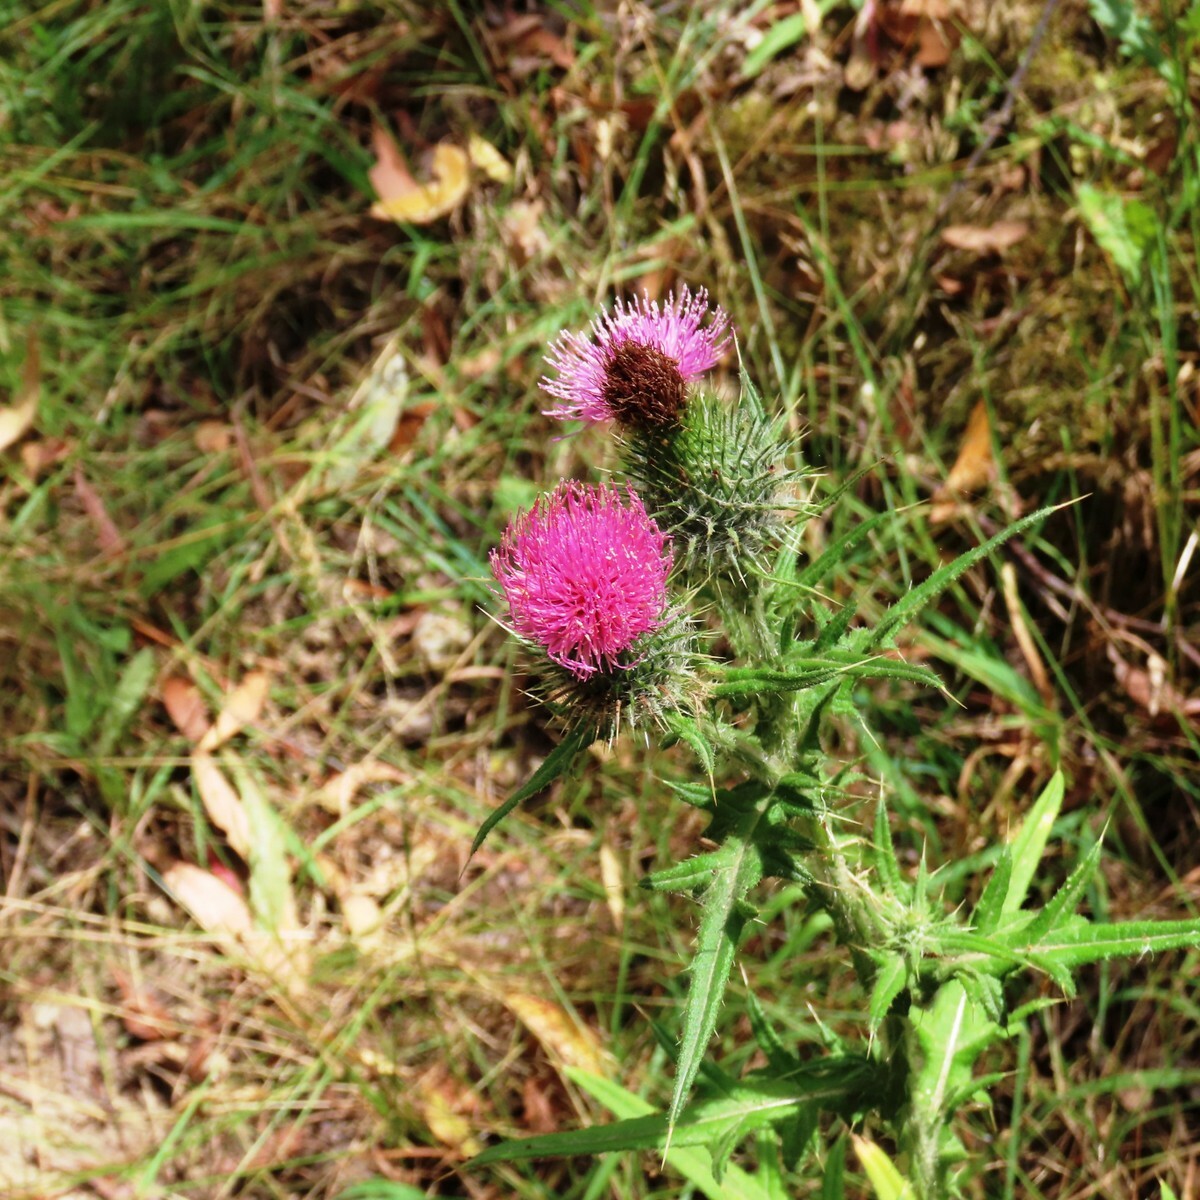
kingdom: Plantae
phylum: Tracheophyta
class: Magnoliopsida
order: Asterales
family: Asteraceae
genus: Cirsium
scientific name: Cirsium vulgare
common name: Bull thistle
